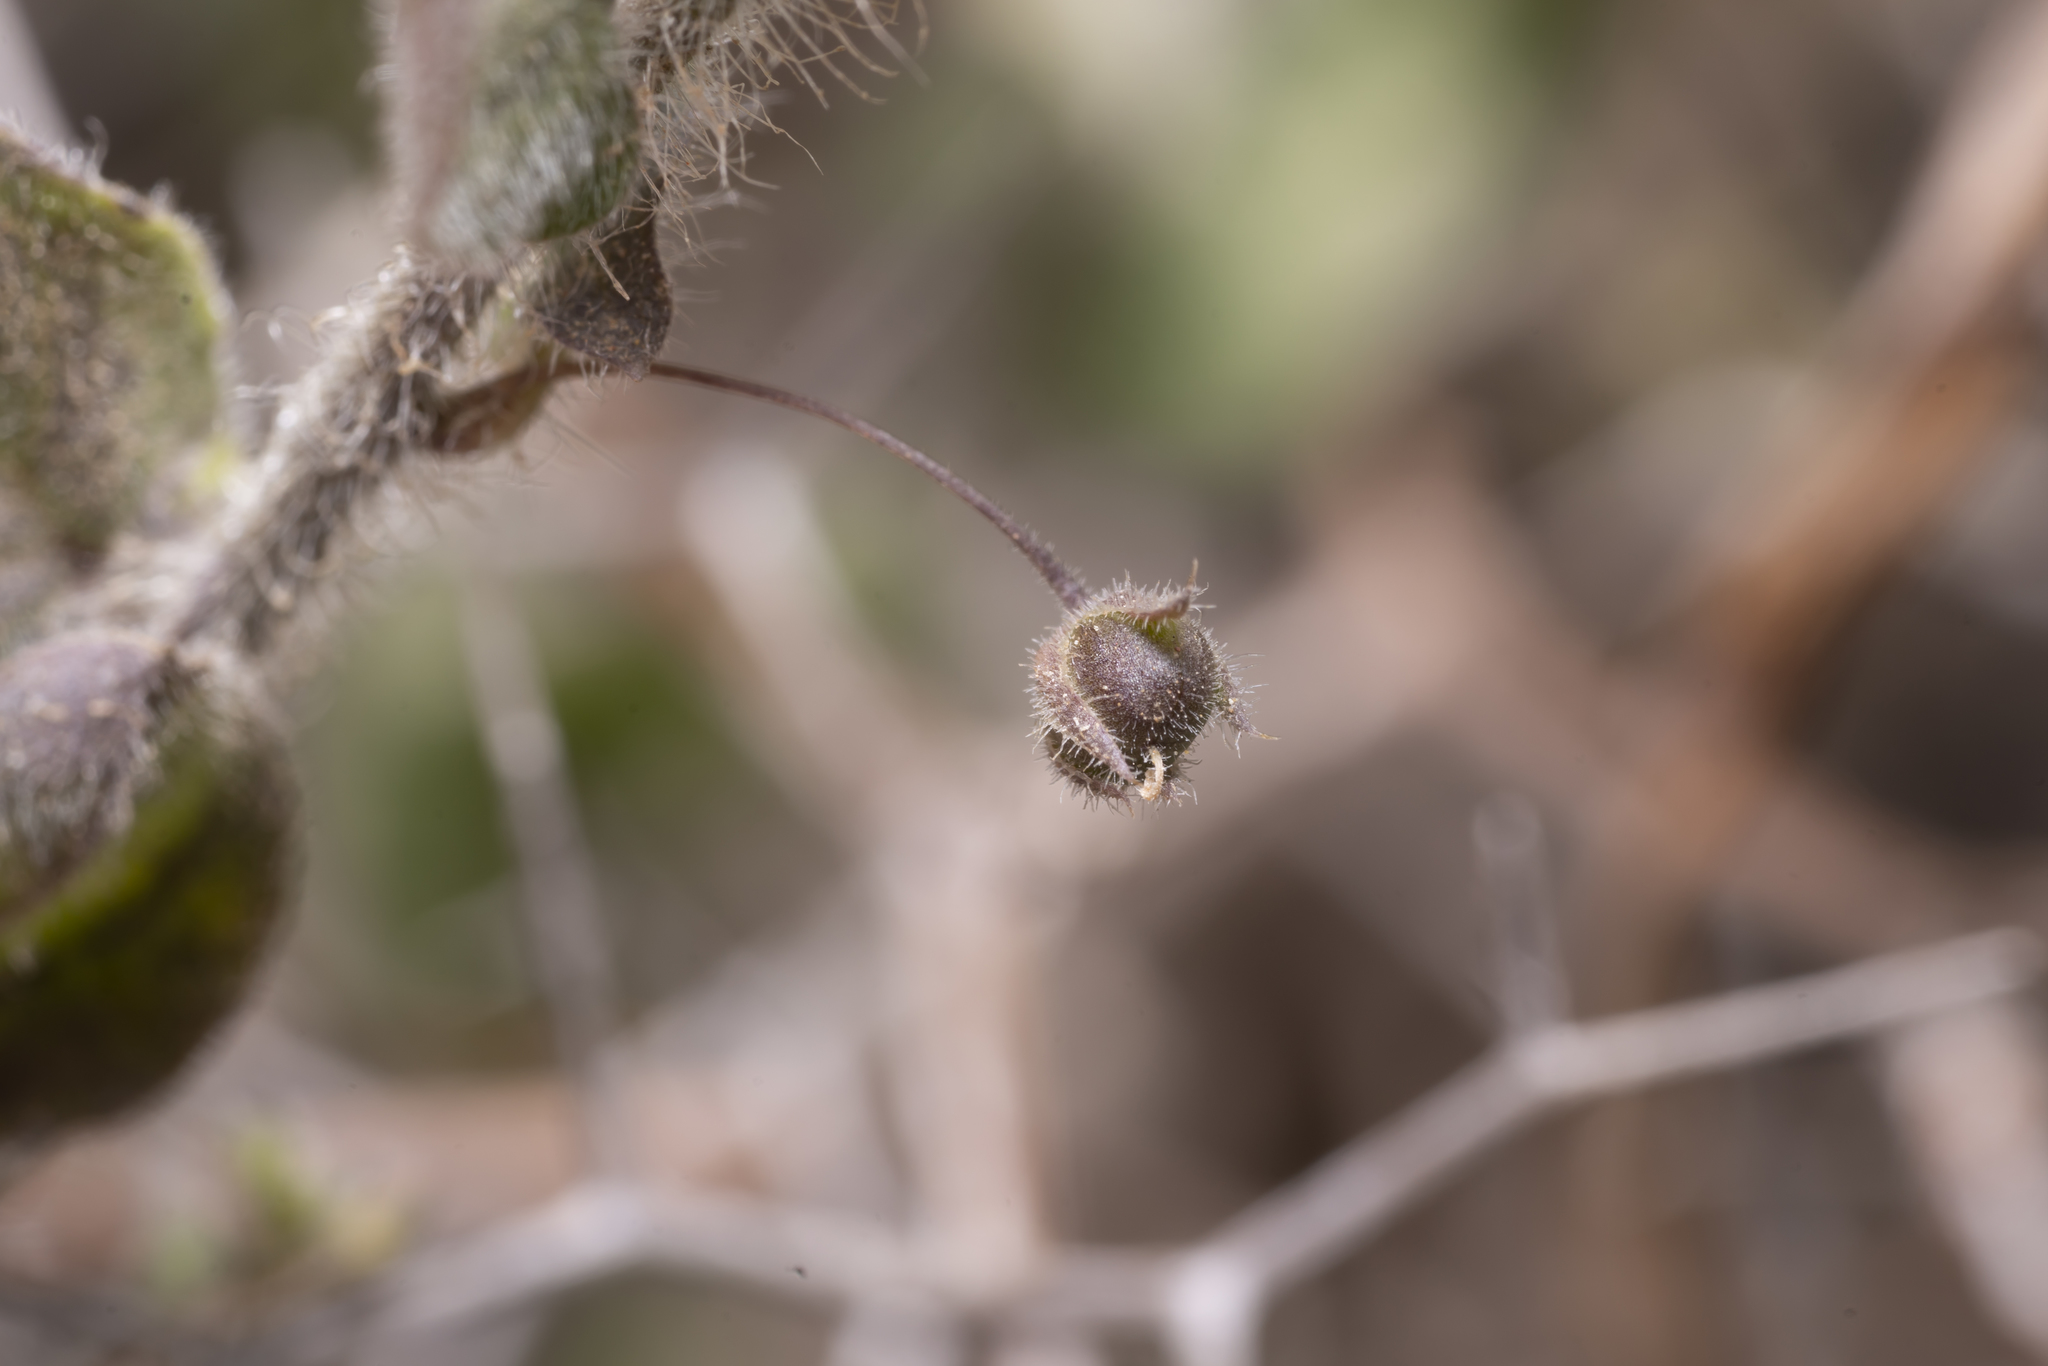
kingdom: Plantae
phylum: Tracheophyta
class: Magnoliopsida
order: Lamiales
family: Plantaginaceae
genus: Kickxia
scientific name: Kickxia commutata
